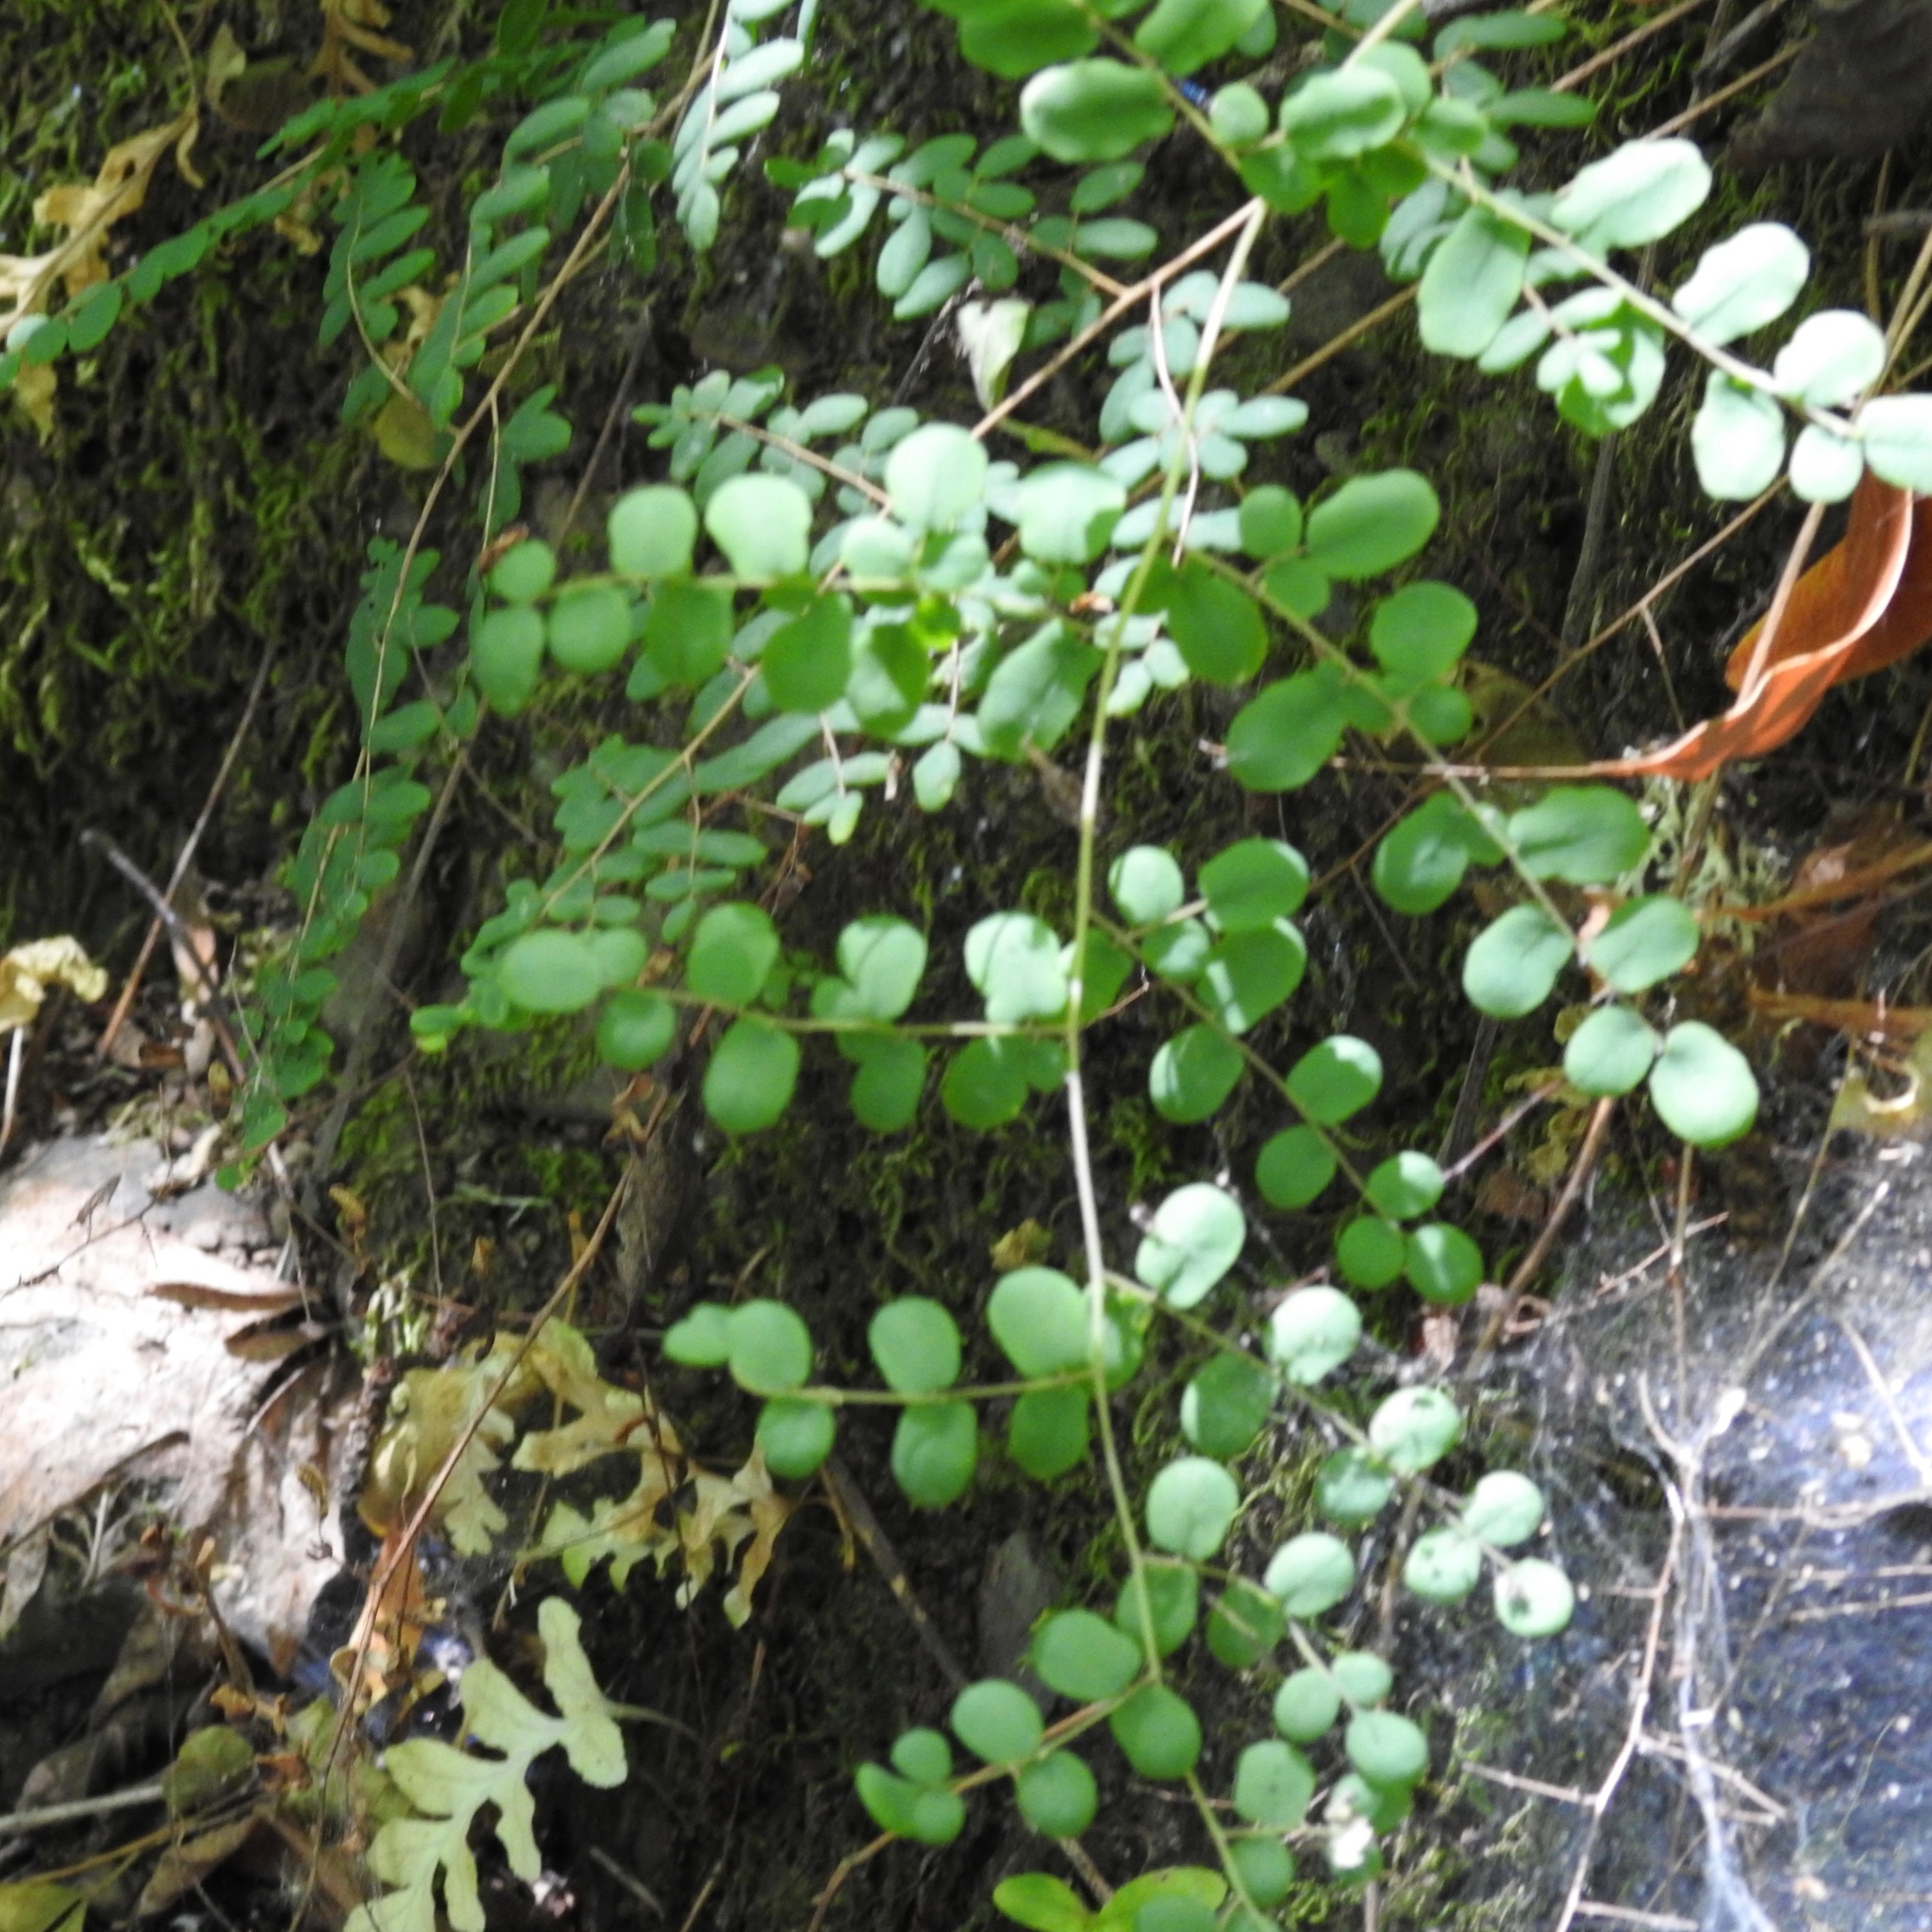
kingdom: Plantae
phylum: Tracheophyta
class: Polypodiopsida
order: Polypodiales
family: Pteridaceae
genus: Pellaea
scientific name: Pellaea andromedifolia
